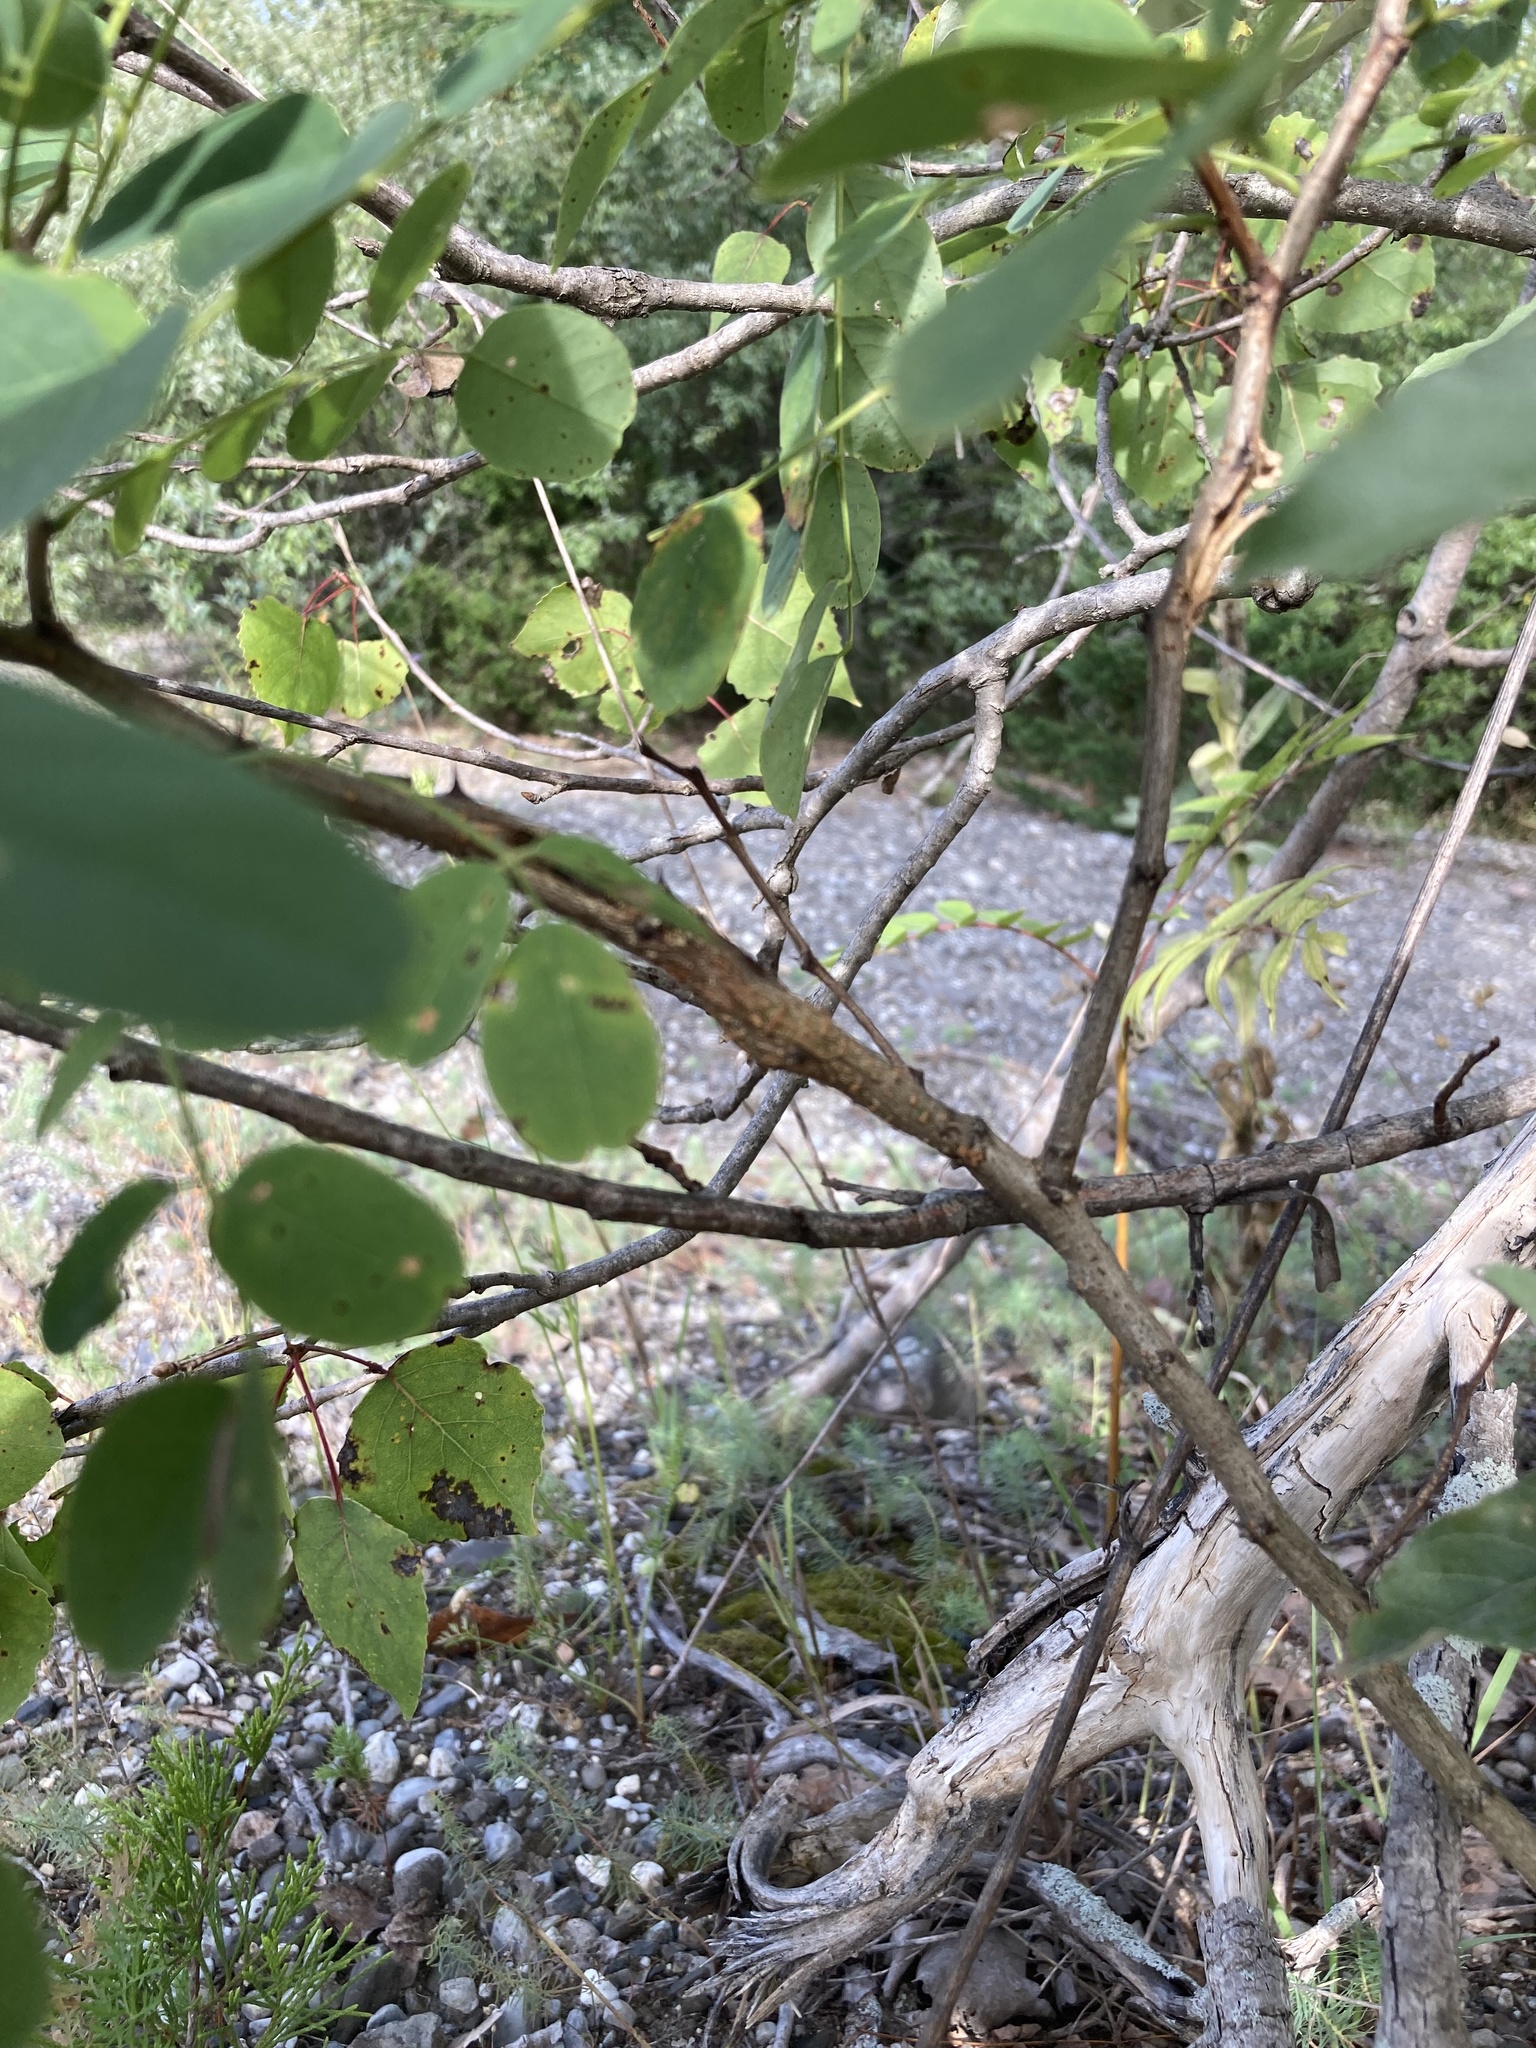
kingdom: Plantae
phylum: Tracheophyta
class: Magnoliopsida
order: Fabales
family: Fabaceae
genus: Robinia
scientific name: Robinia pseudoacacia
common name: Black locust
